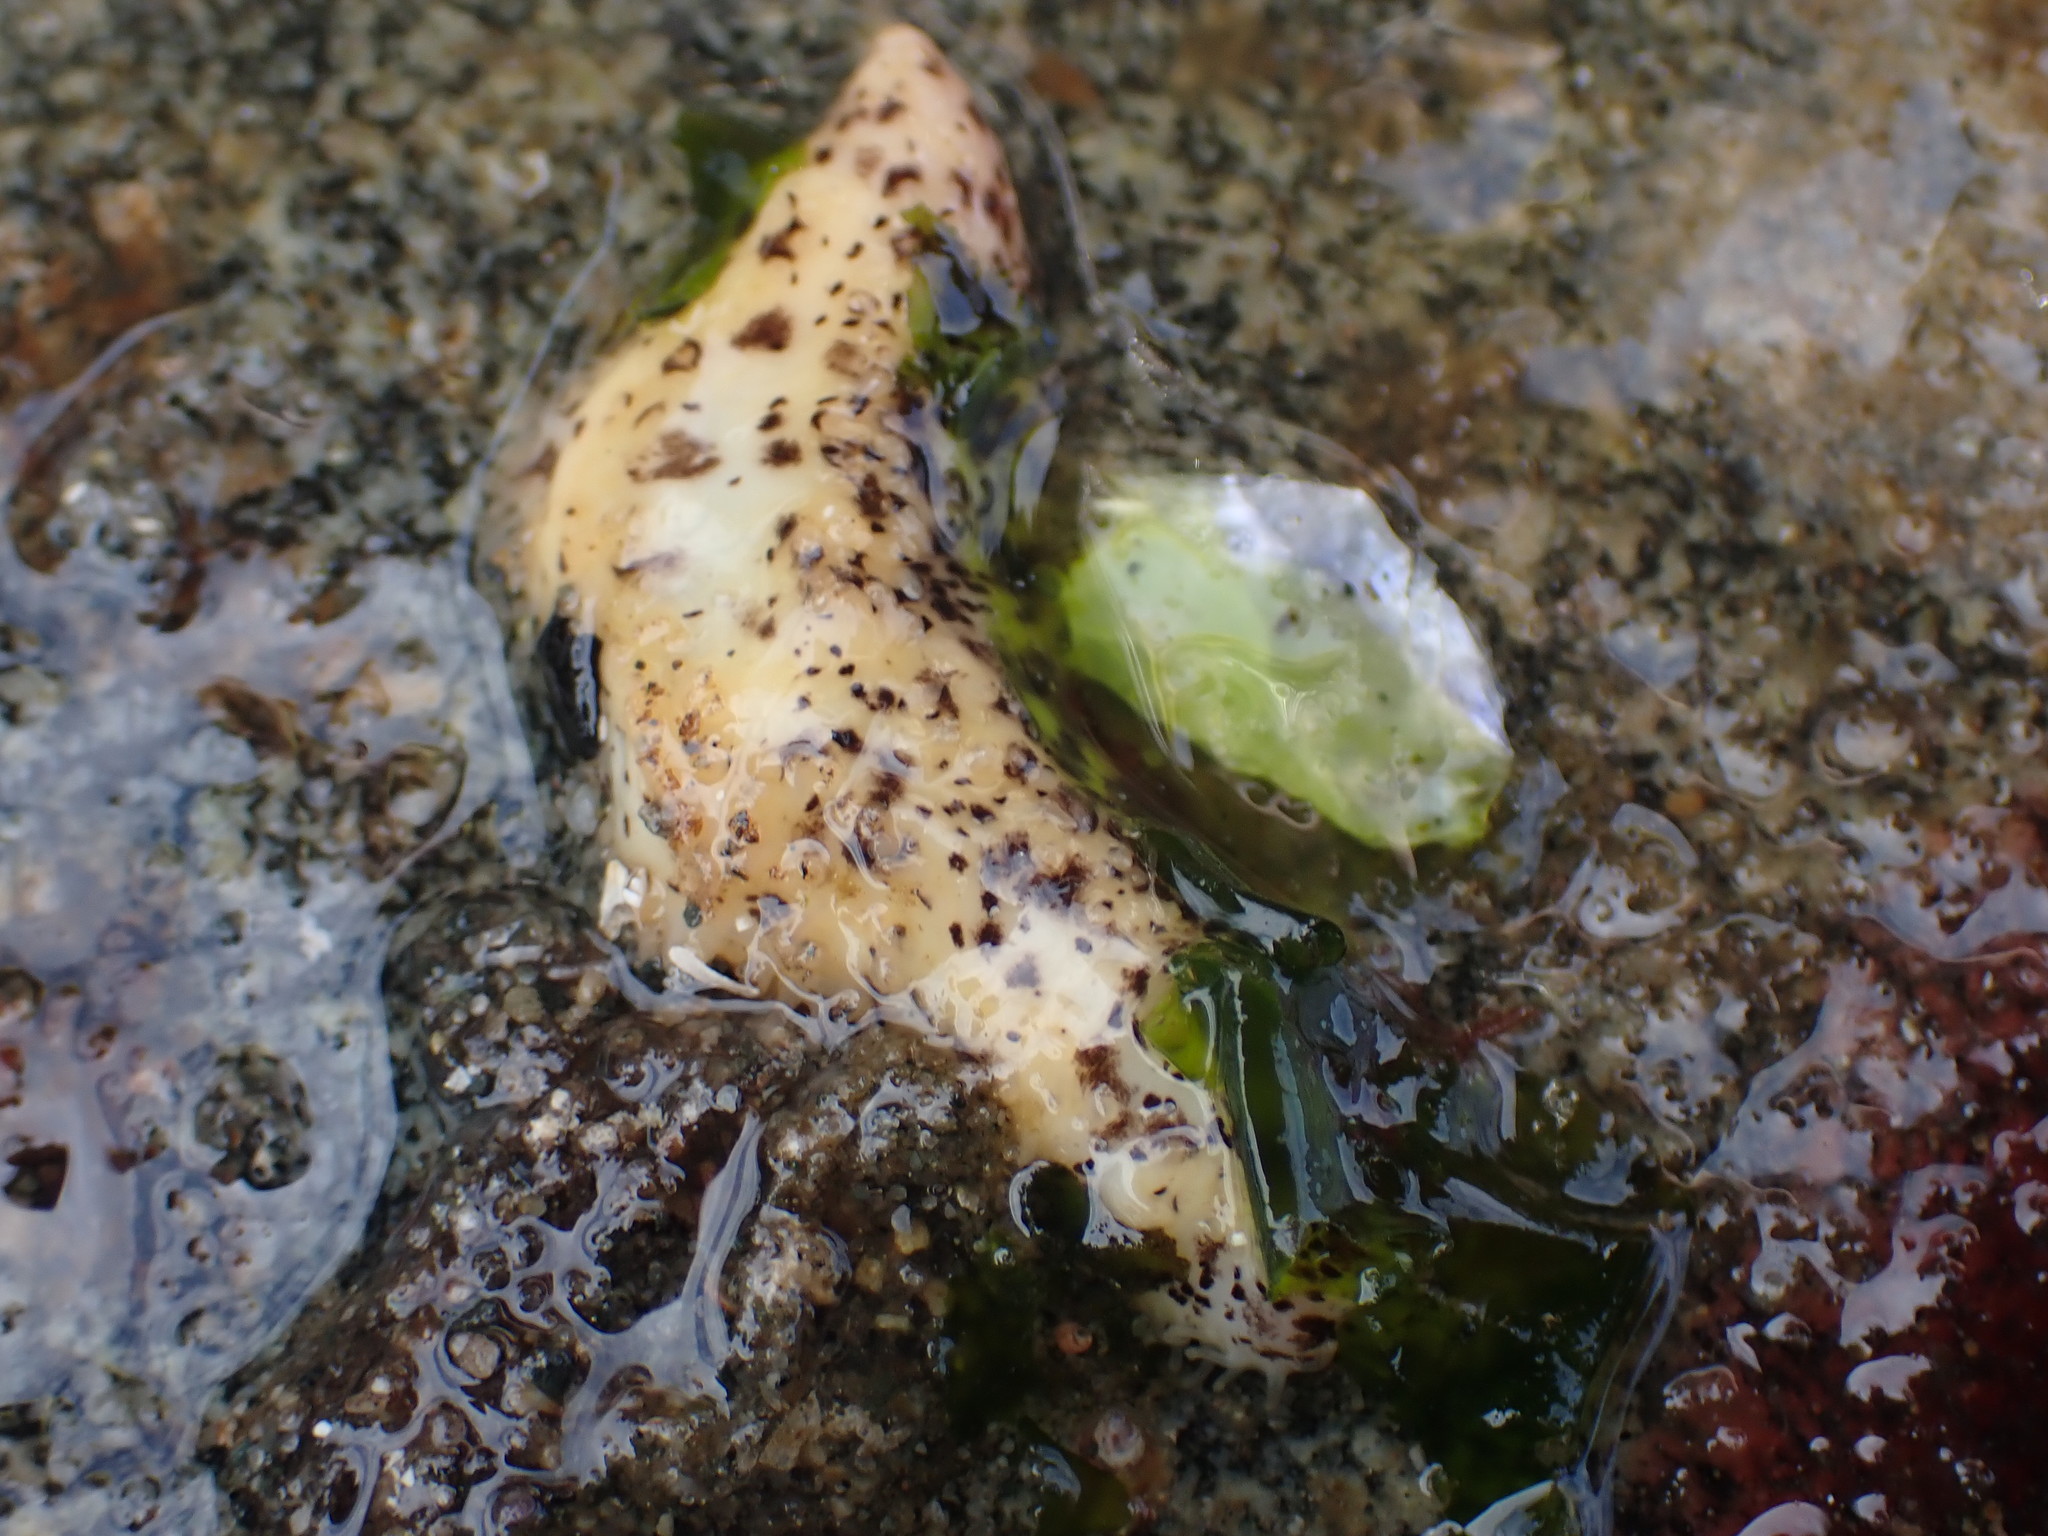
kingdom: Animalia
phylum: Echinodermata
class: Holothuroidea
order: Dendrochirotida
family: Cucumariidae
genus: Cucumaria
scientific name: Cucumaria piperata
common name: Peppered sea cucumber
